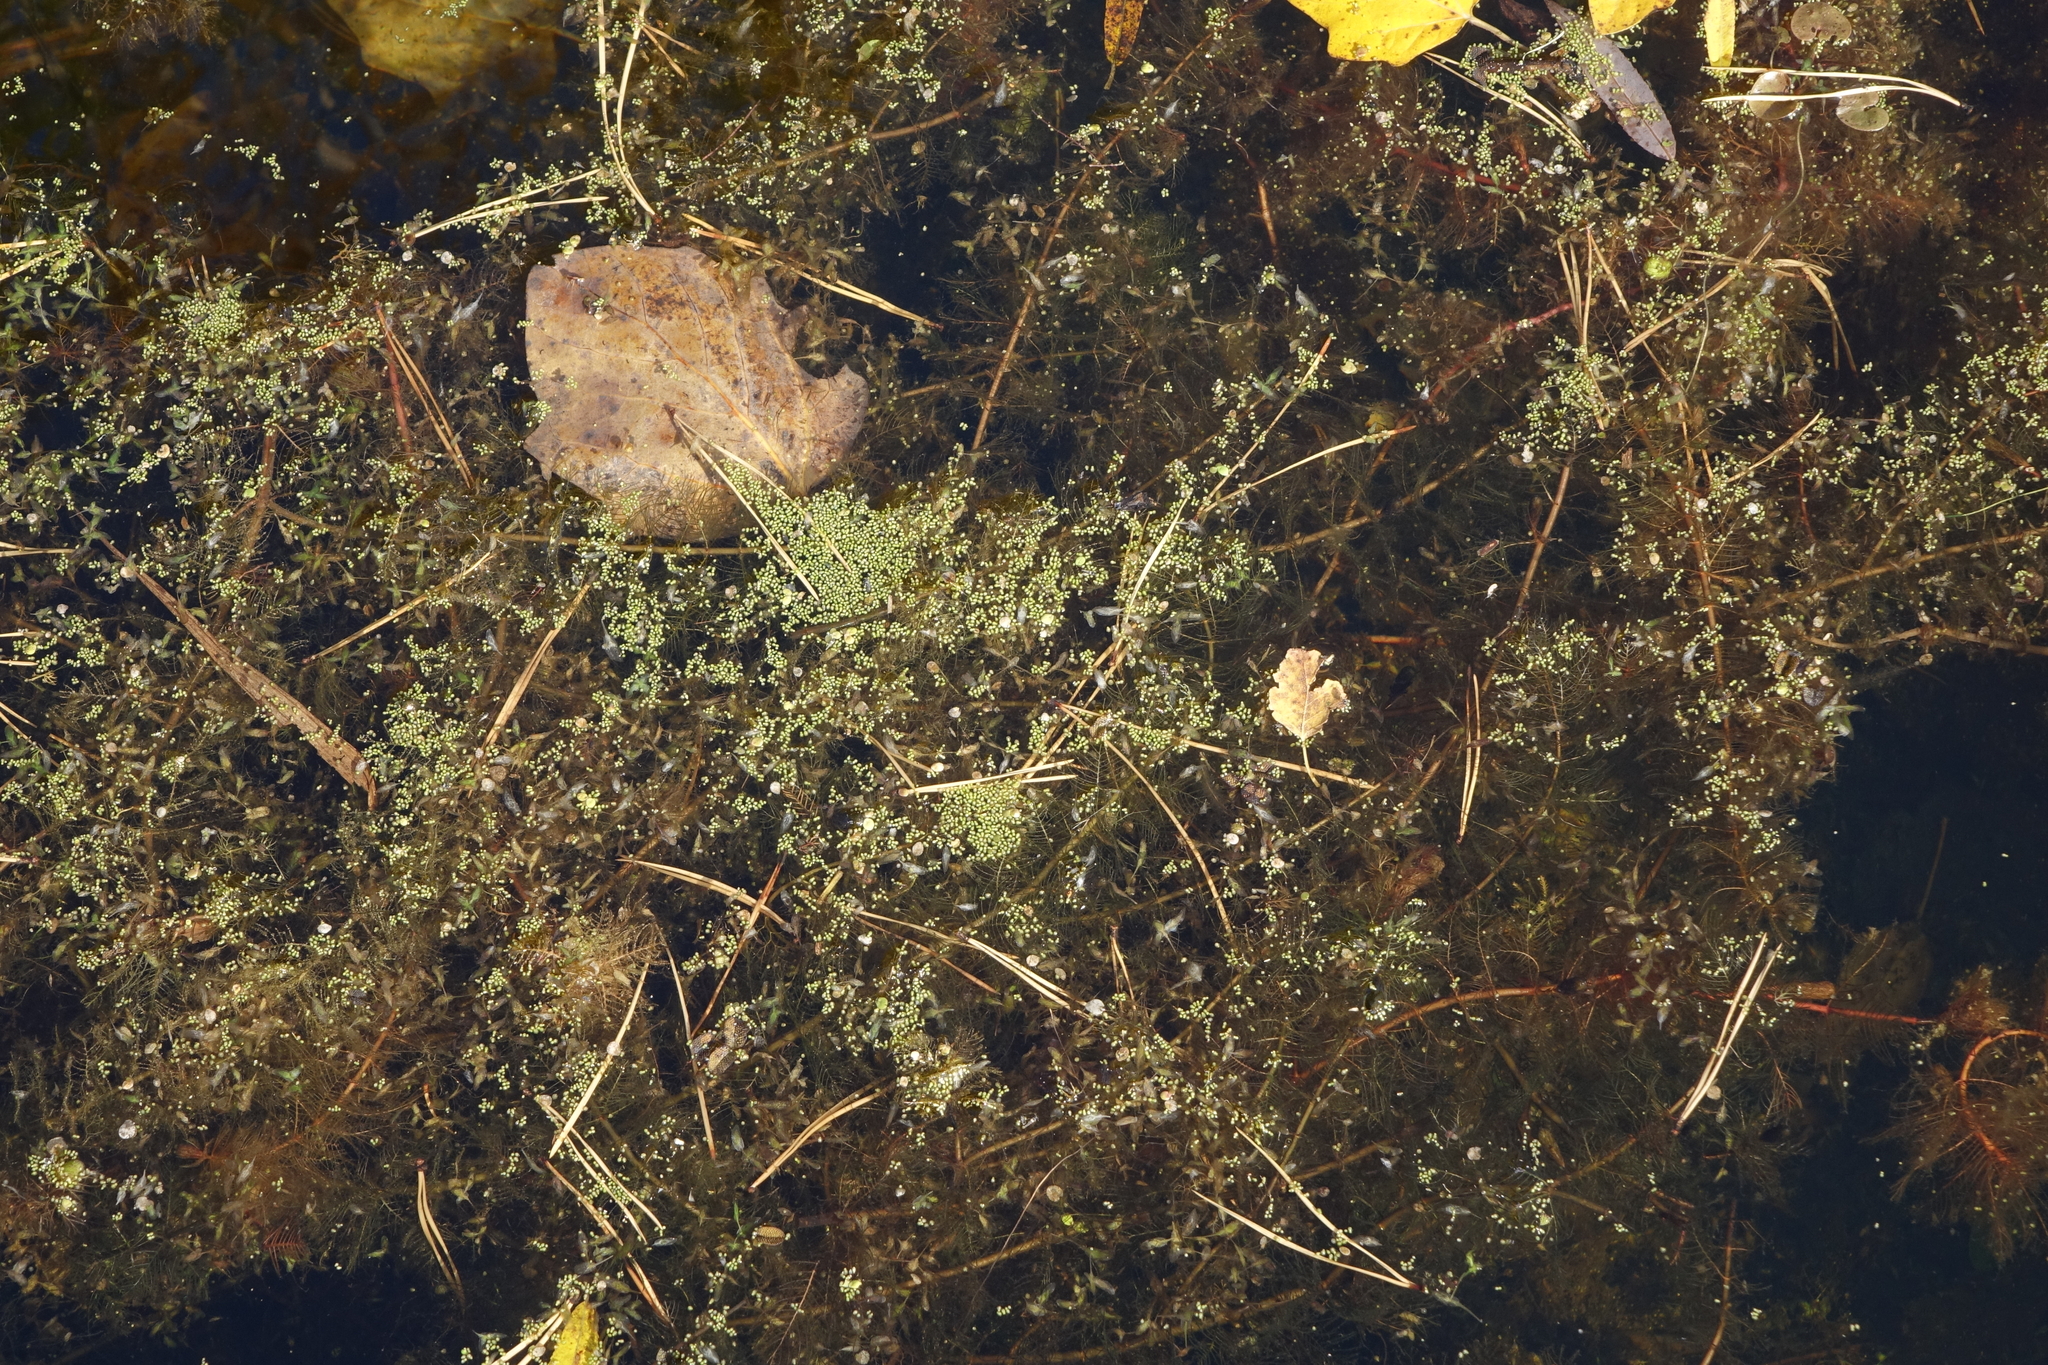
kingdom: Plantae
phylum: Tracheophyta
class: Liliopsida
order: Alismatales
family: Araceae
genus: Wolffia
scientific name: Wolffia arrhiza
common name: Rootless duckweed
